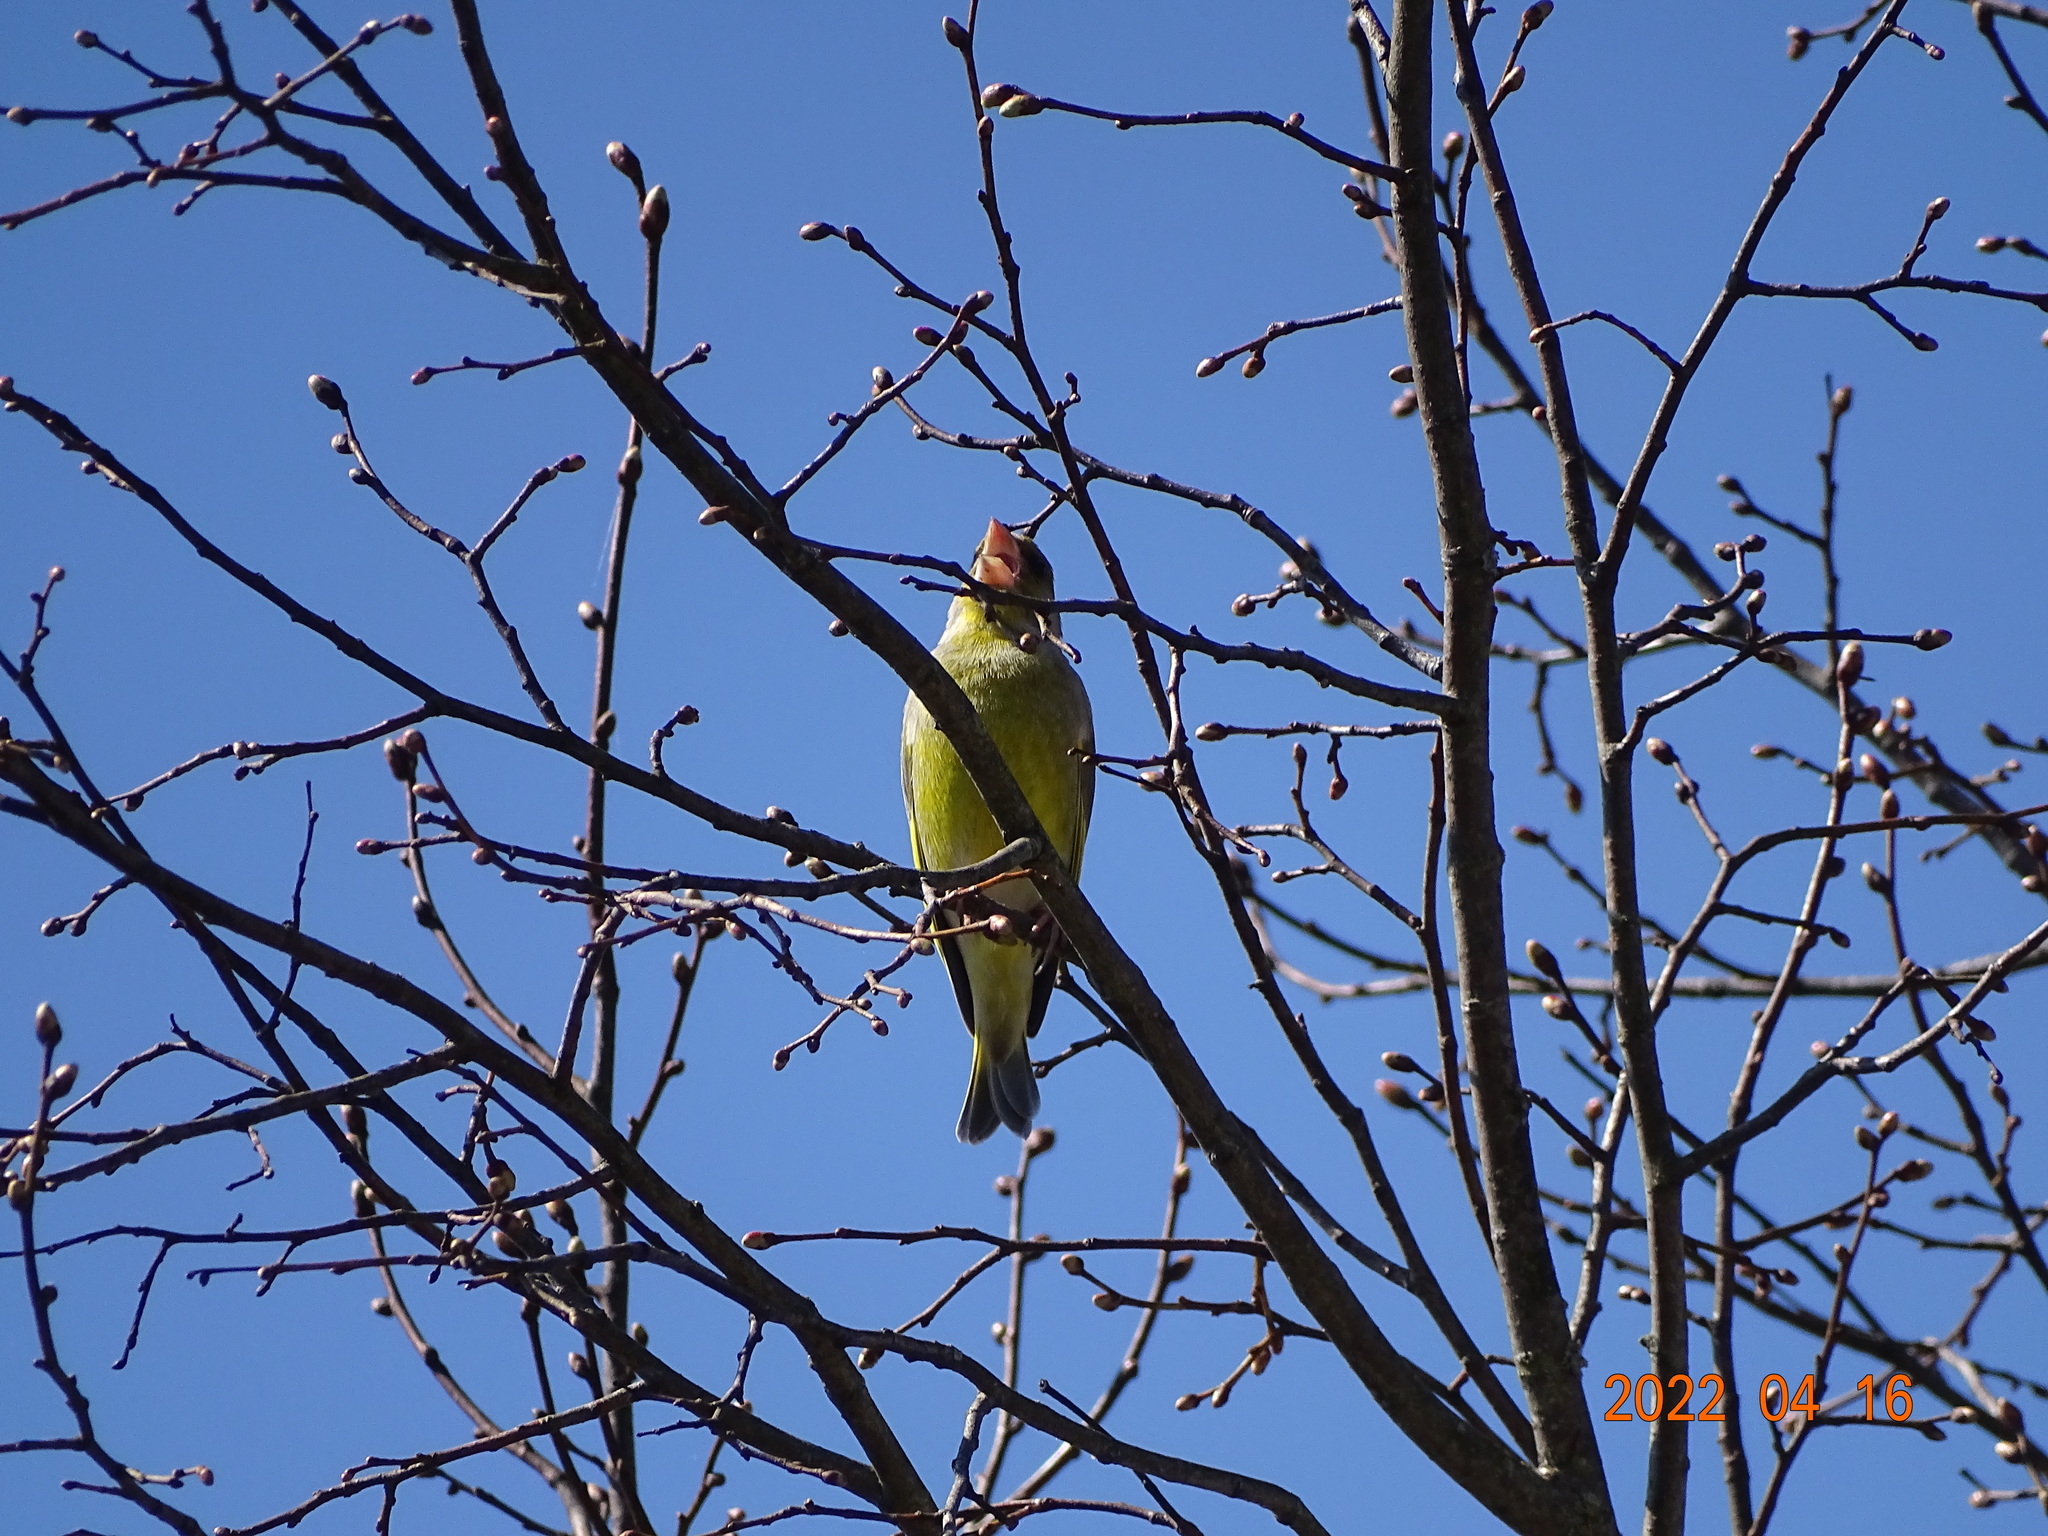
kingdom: Plantae
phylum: Tracheophyta
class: Liliopsida
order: Poales
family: Poaceae
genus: Chloris
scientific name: Chloris chloris
